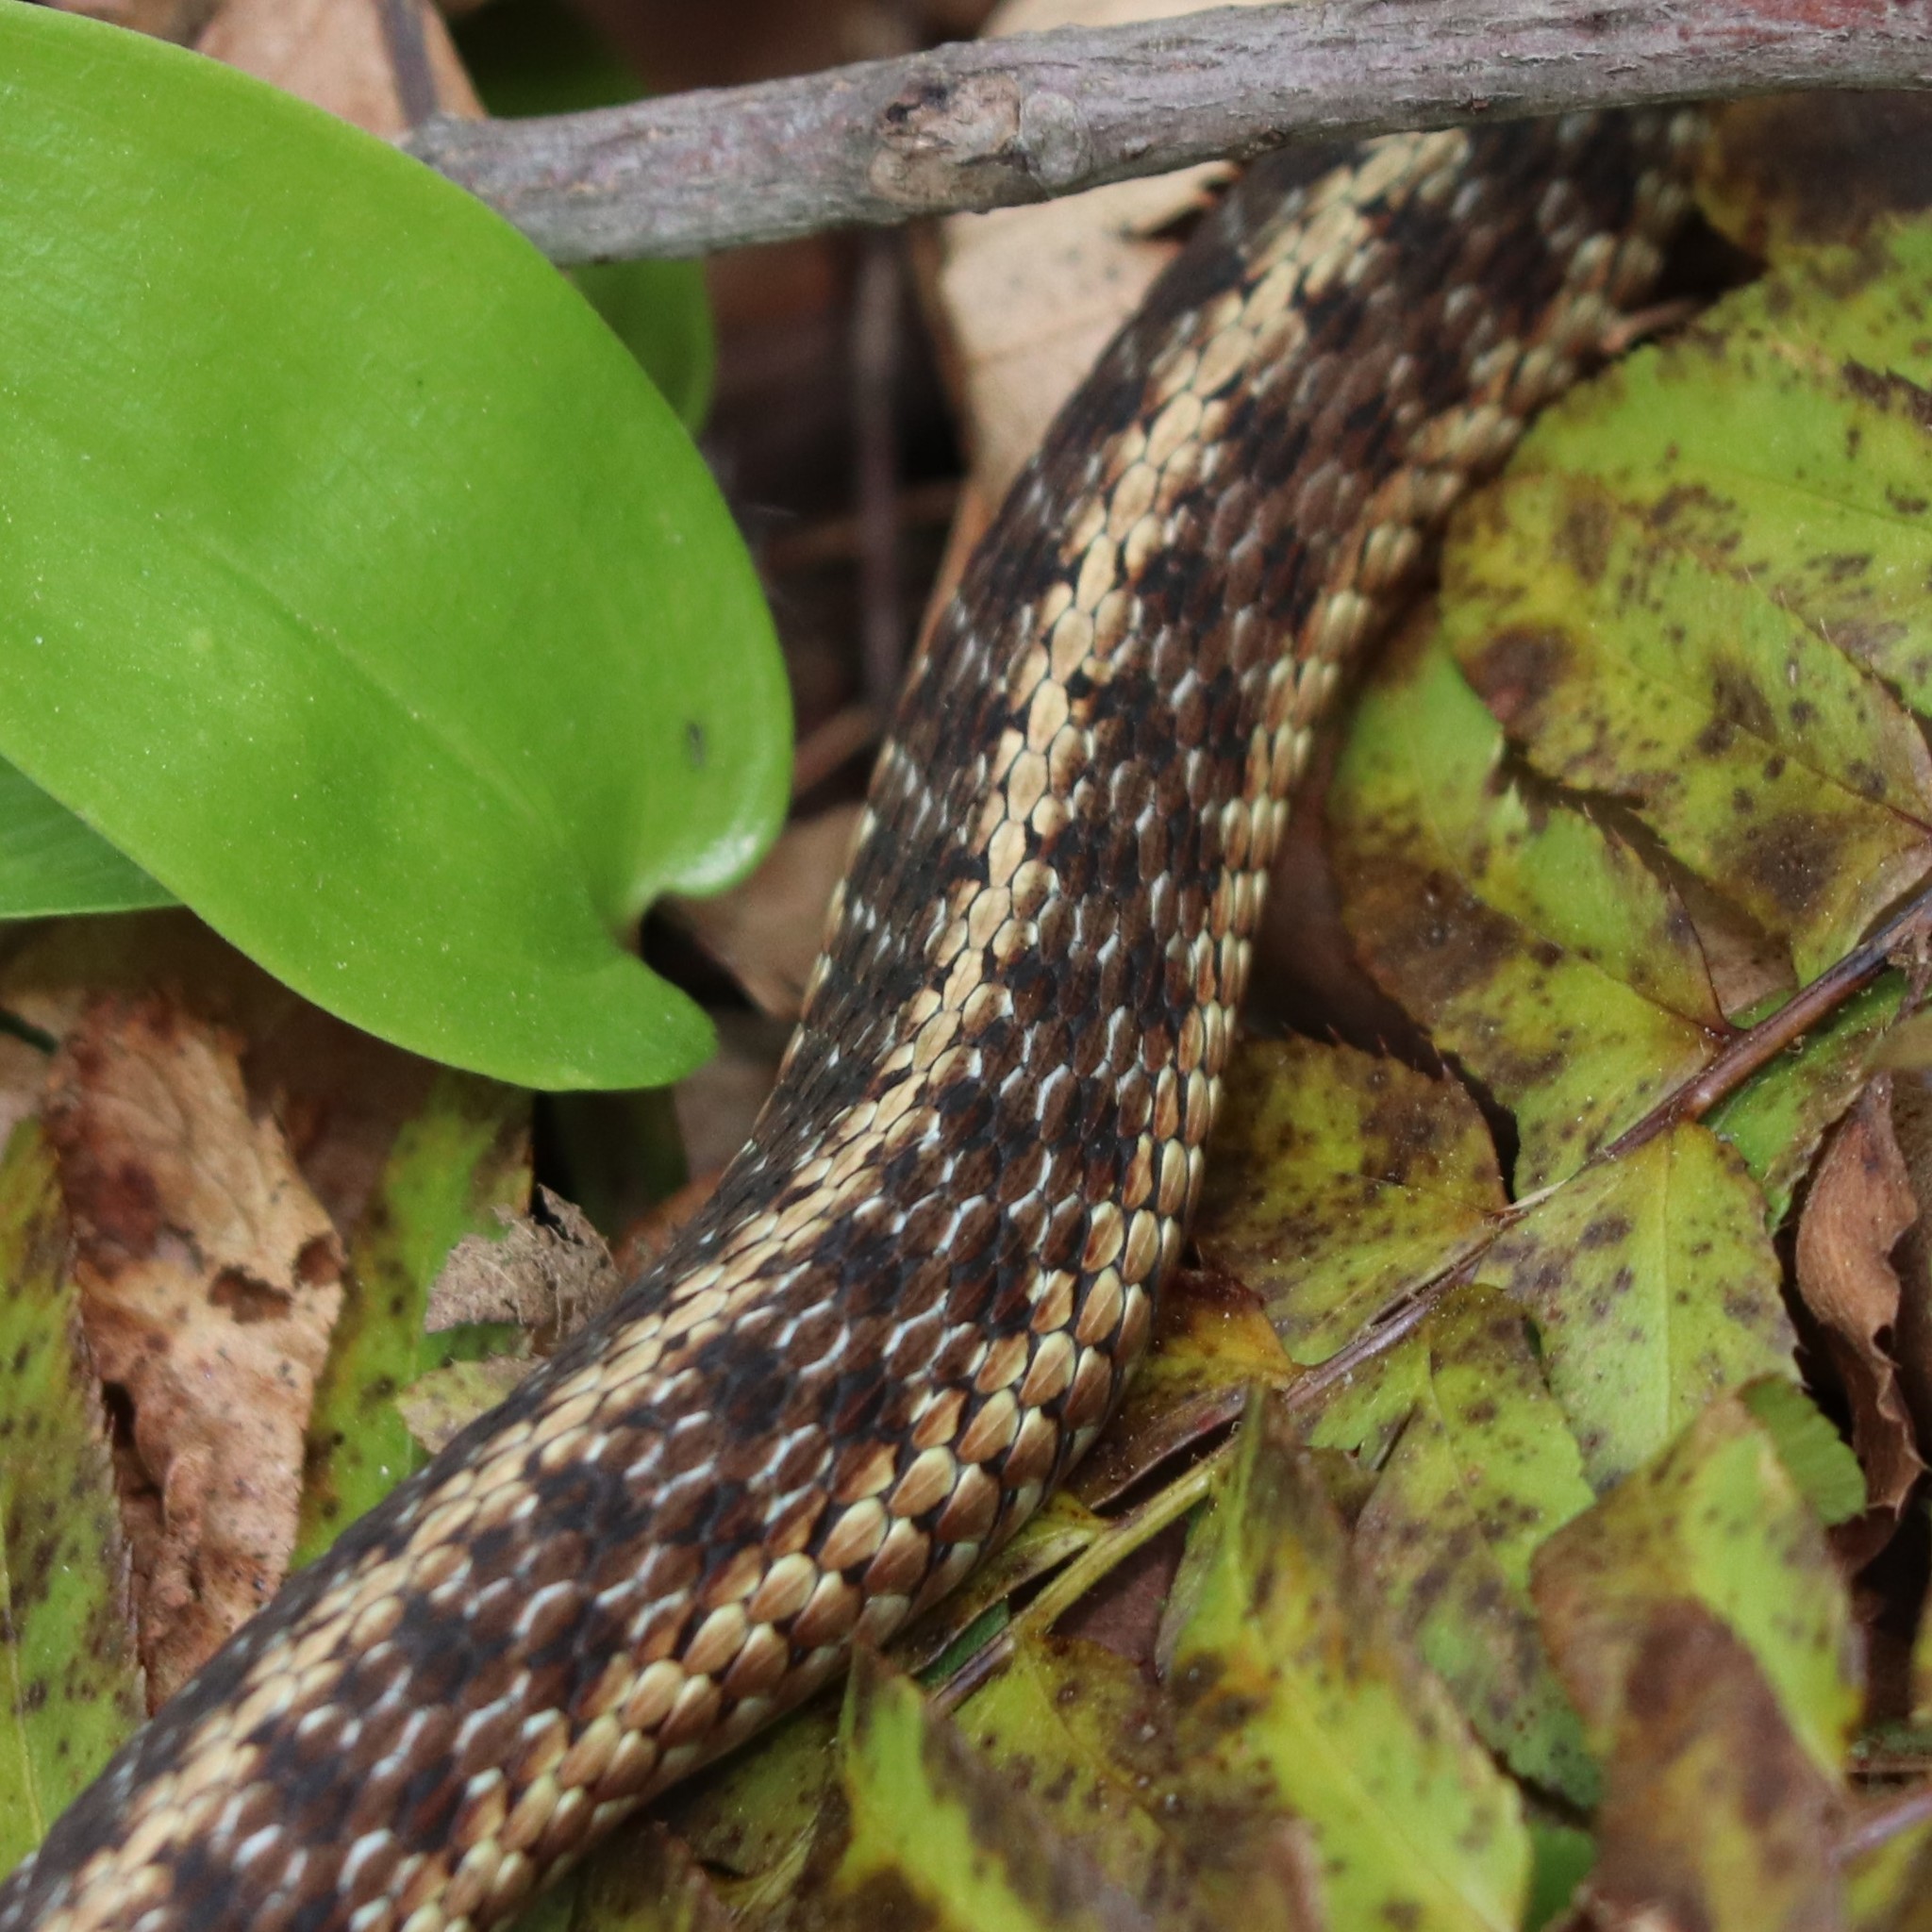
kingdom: Animalia
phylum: Chordata
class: Squamata
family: Colubridae
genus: Thamnophis
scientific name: Thamnophis sirtalis
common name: Common garter snake
